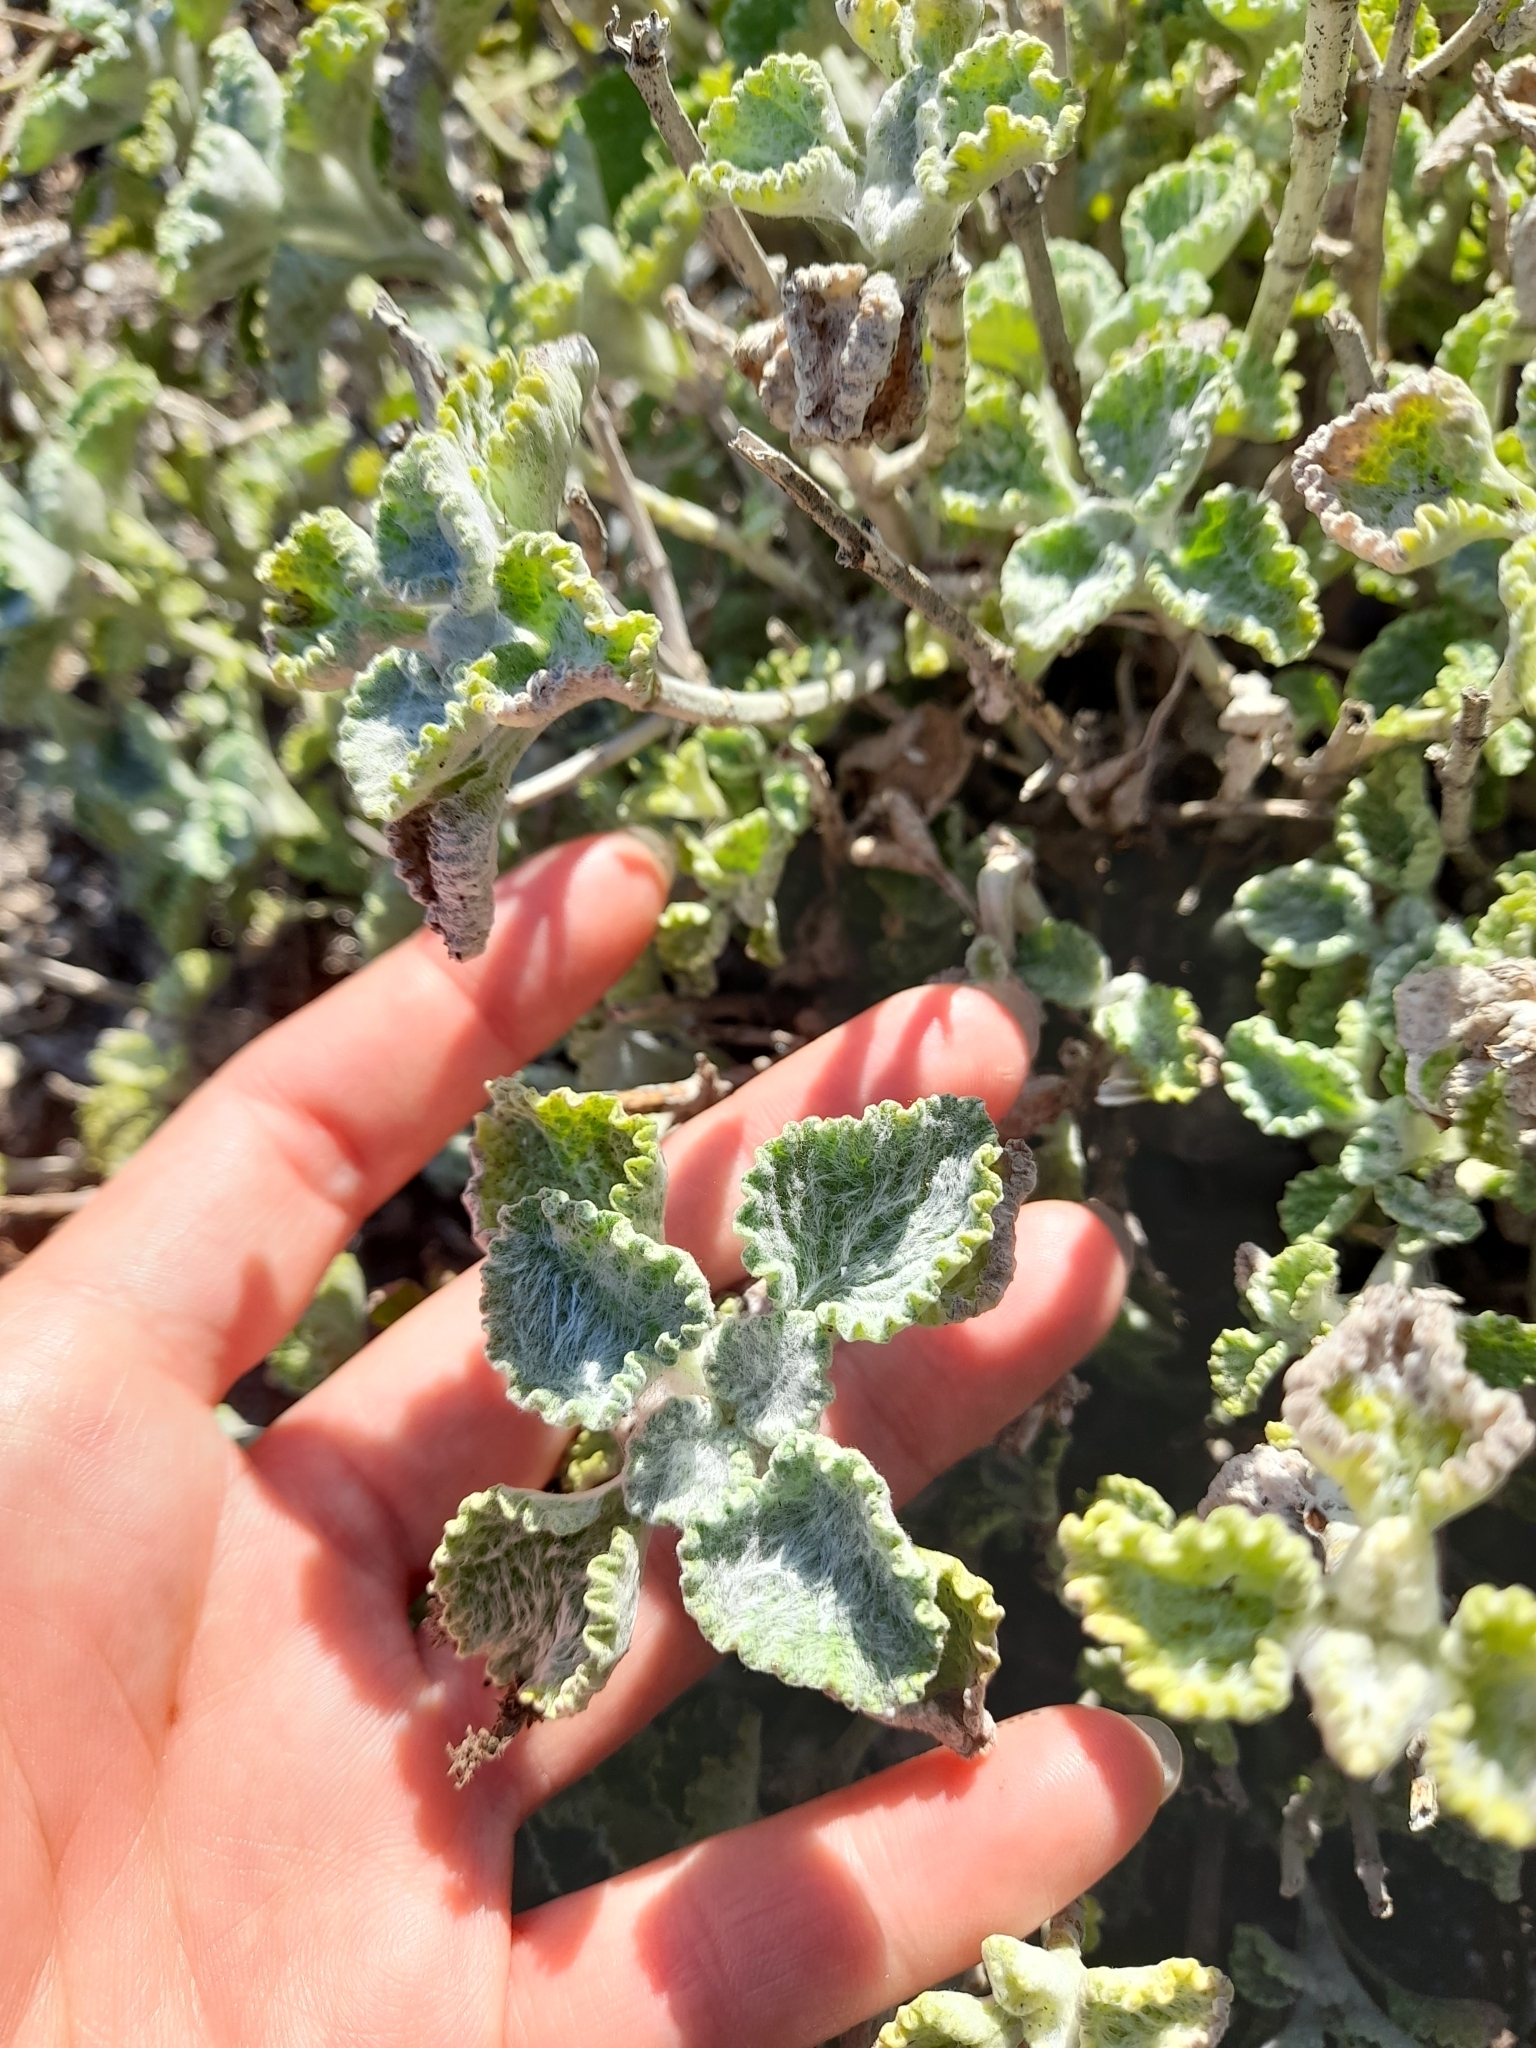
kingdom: Plantae
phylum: Tracheophyta
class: Magnoliopsida
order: Lamiales
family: Lamiaceae
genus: Marrubium
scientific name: Marrubium vulgare
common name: Horehound
